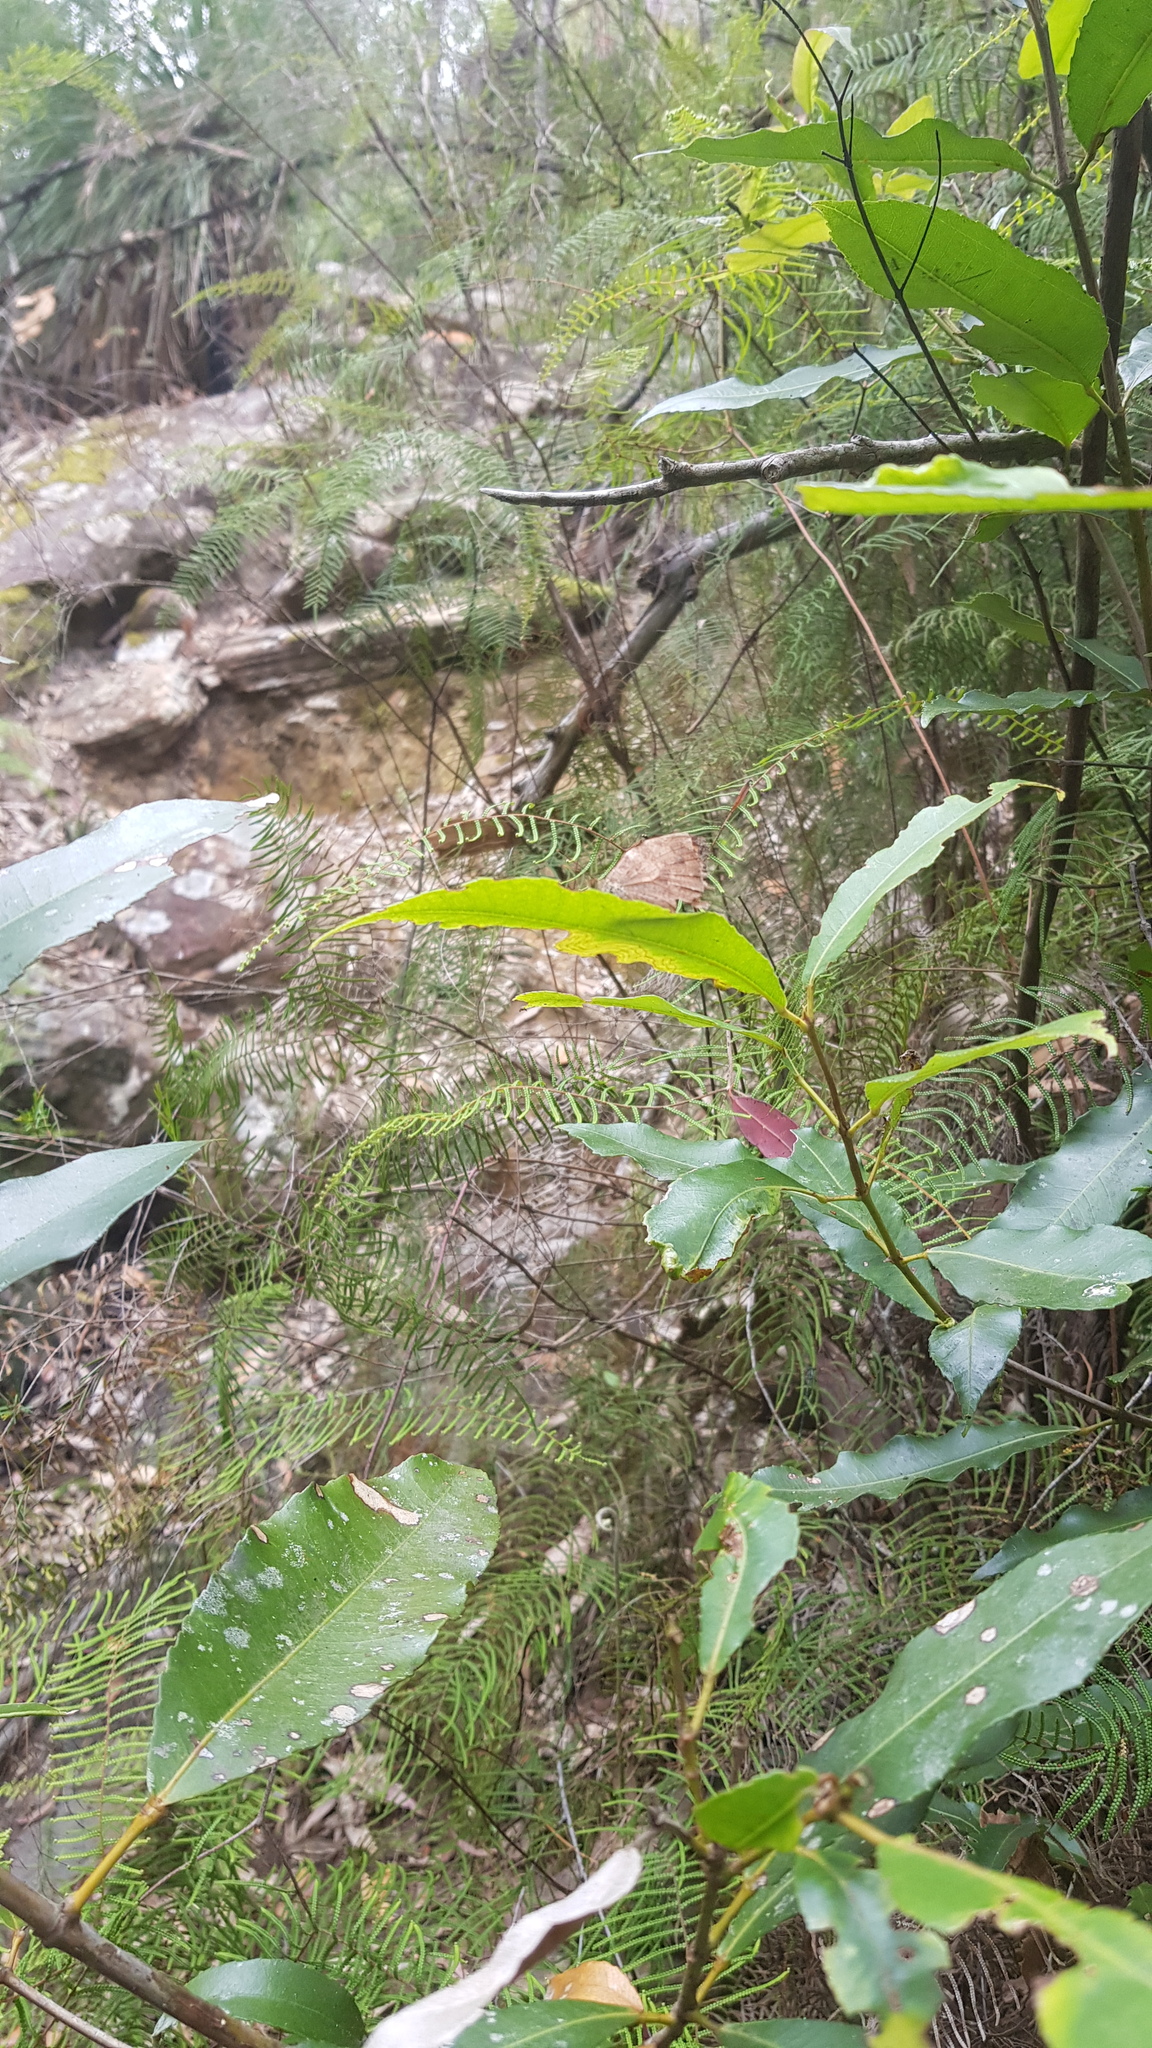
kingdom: Animalia
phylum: Arthropoda
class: Insecta
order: Lepidoptera
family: Nymphalidae
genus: Heteronympha
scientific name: Heteronympha mirifica
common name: Wonder brown
